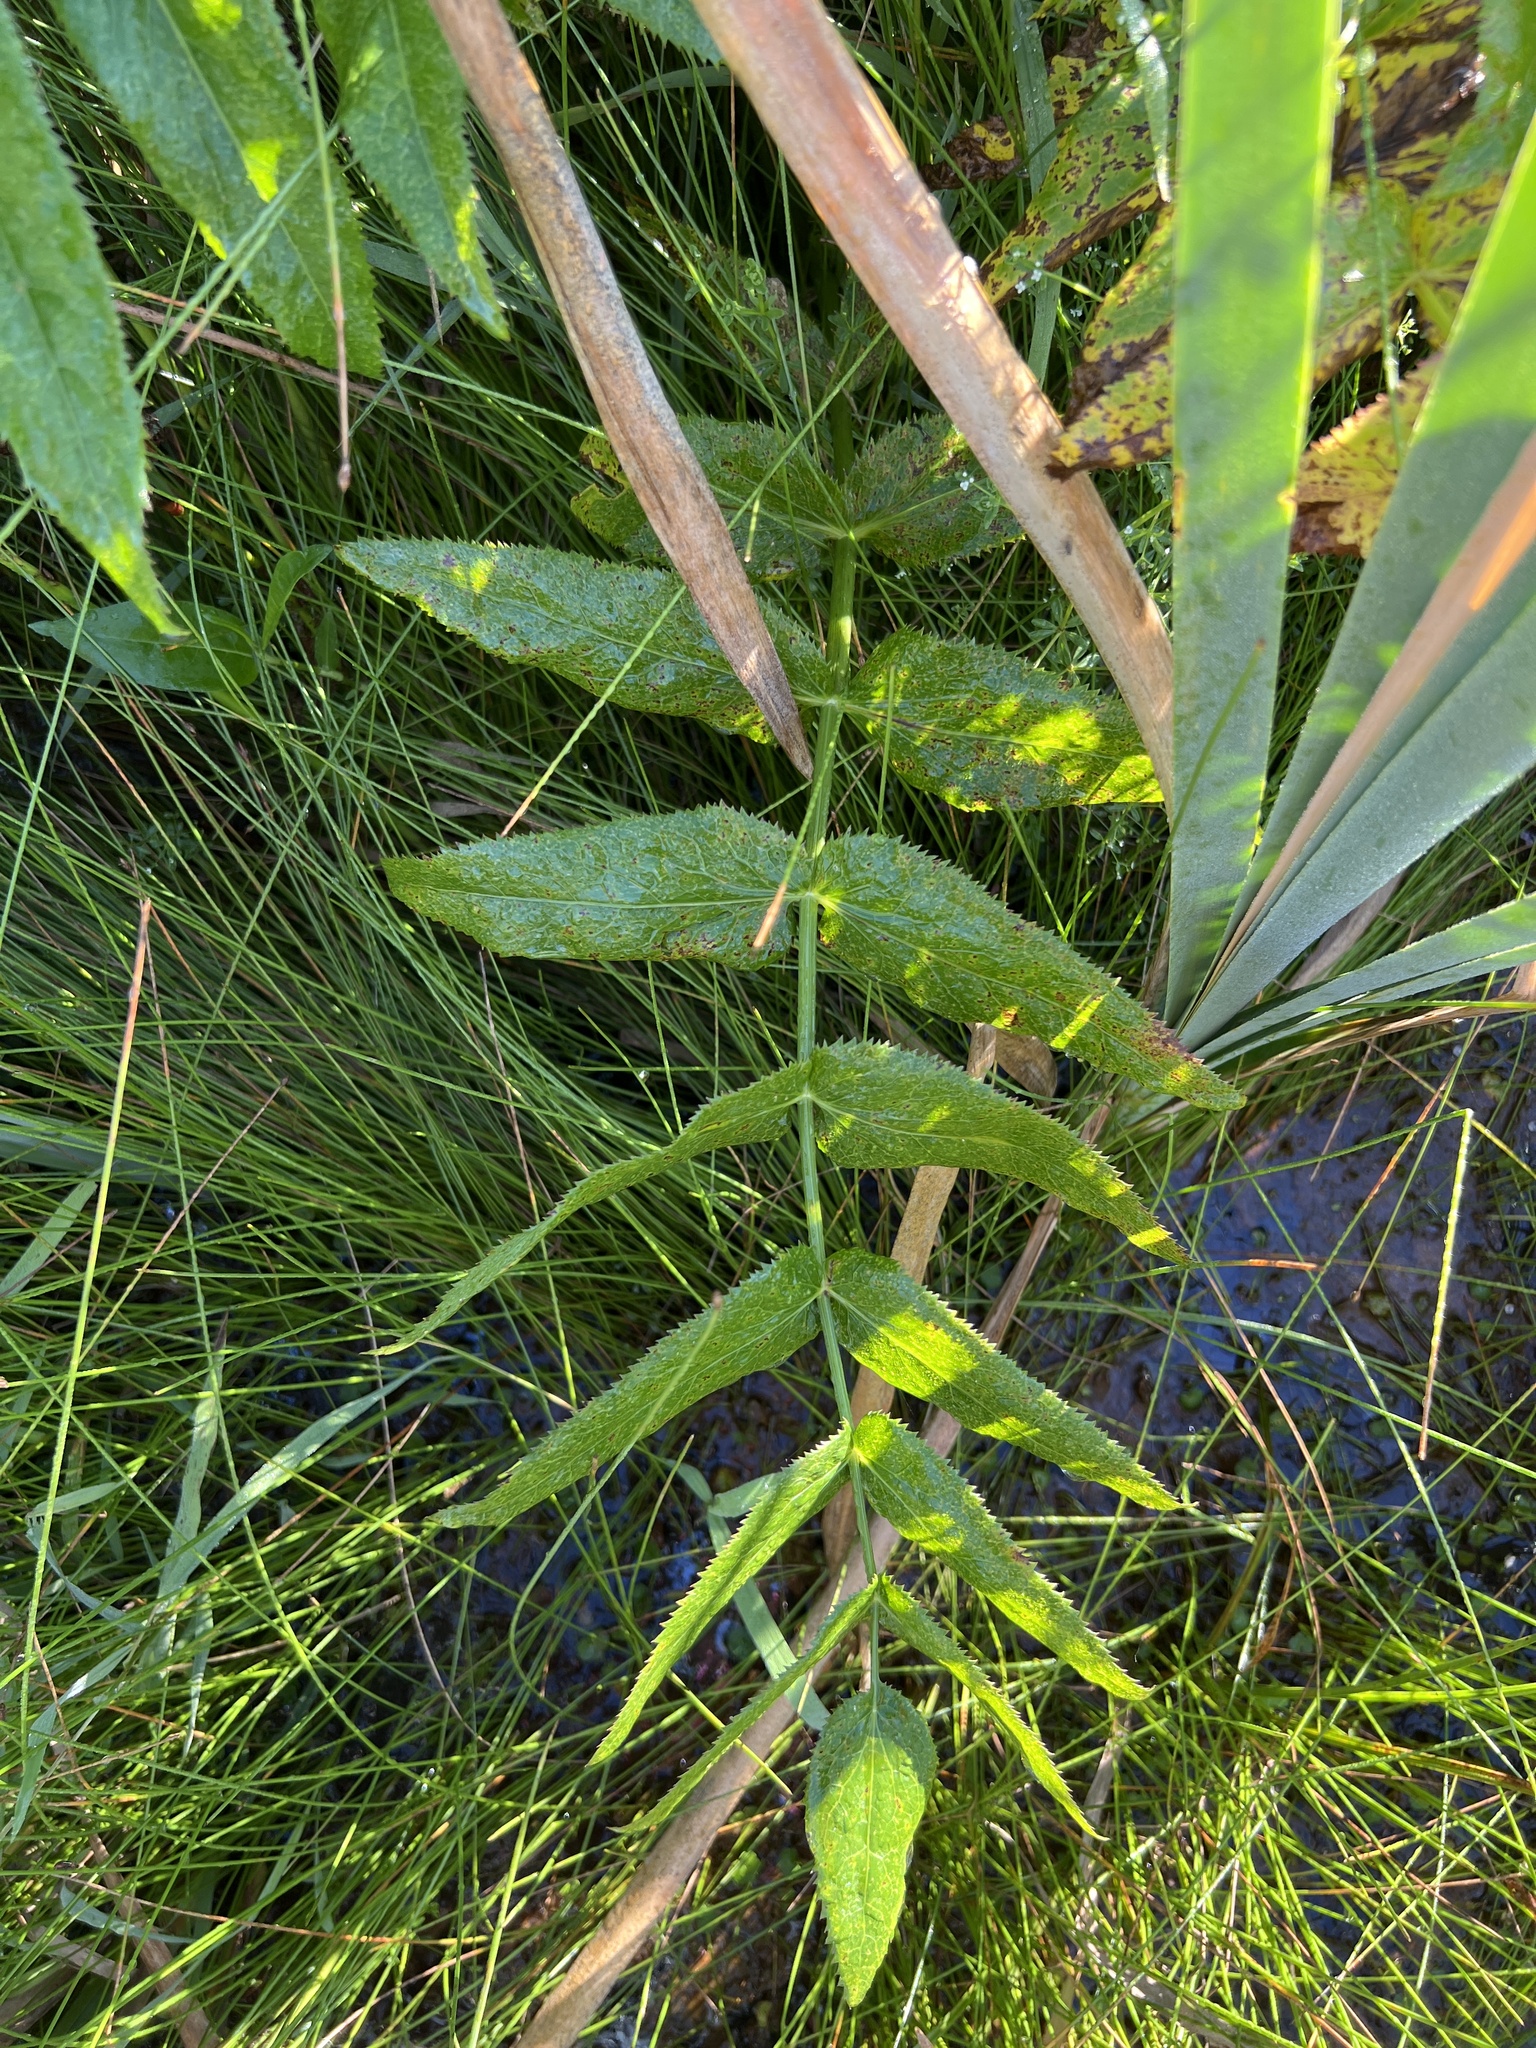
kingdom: Plantae
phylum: Tracheophyta
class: Magnoliopsida
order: Apiales
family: Apiaceae
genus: Sium
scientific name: Sium suave
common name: Hemlock water-parsnip
